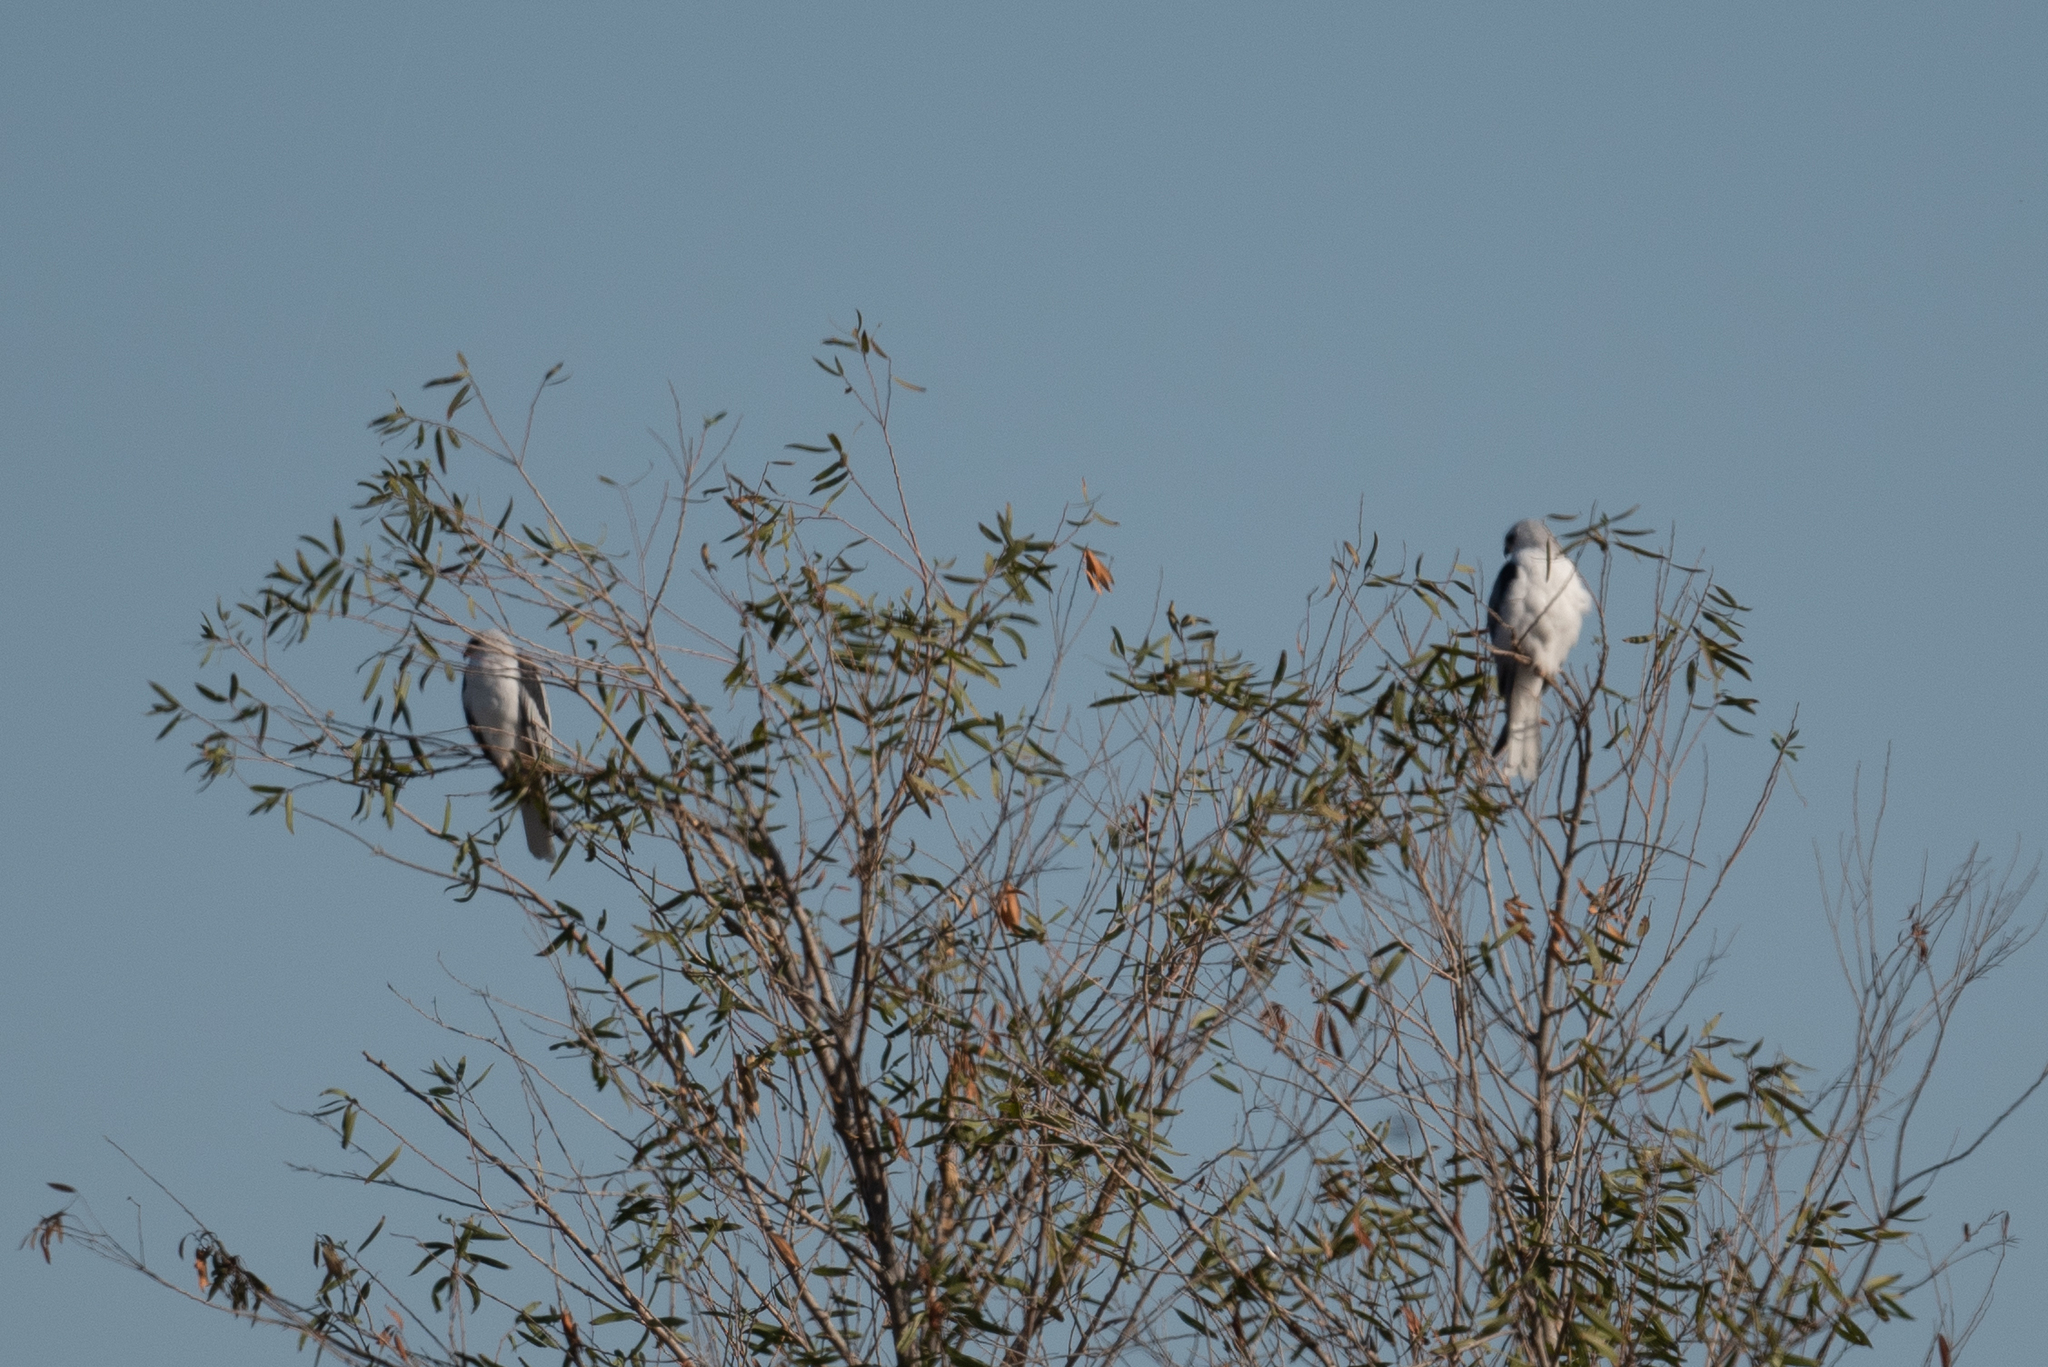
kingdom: Animalia
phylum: Chordata
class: Aves
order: Accipitriformes
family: Accipitridae
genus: Elanus
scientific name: Elanus leucurus
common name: White-tailed kite
